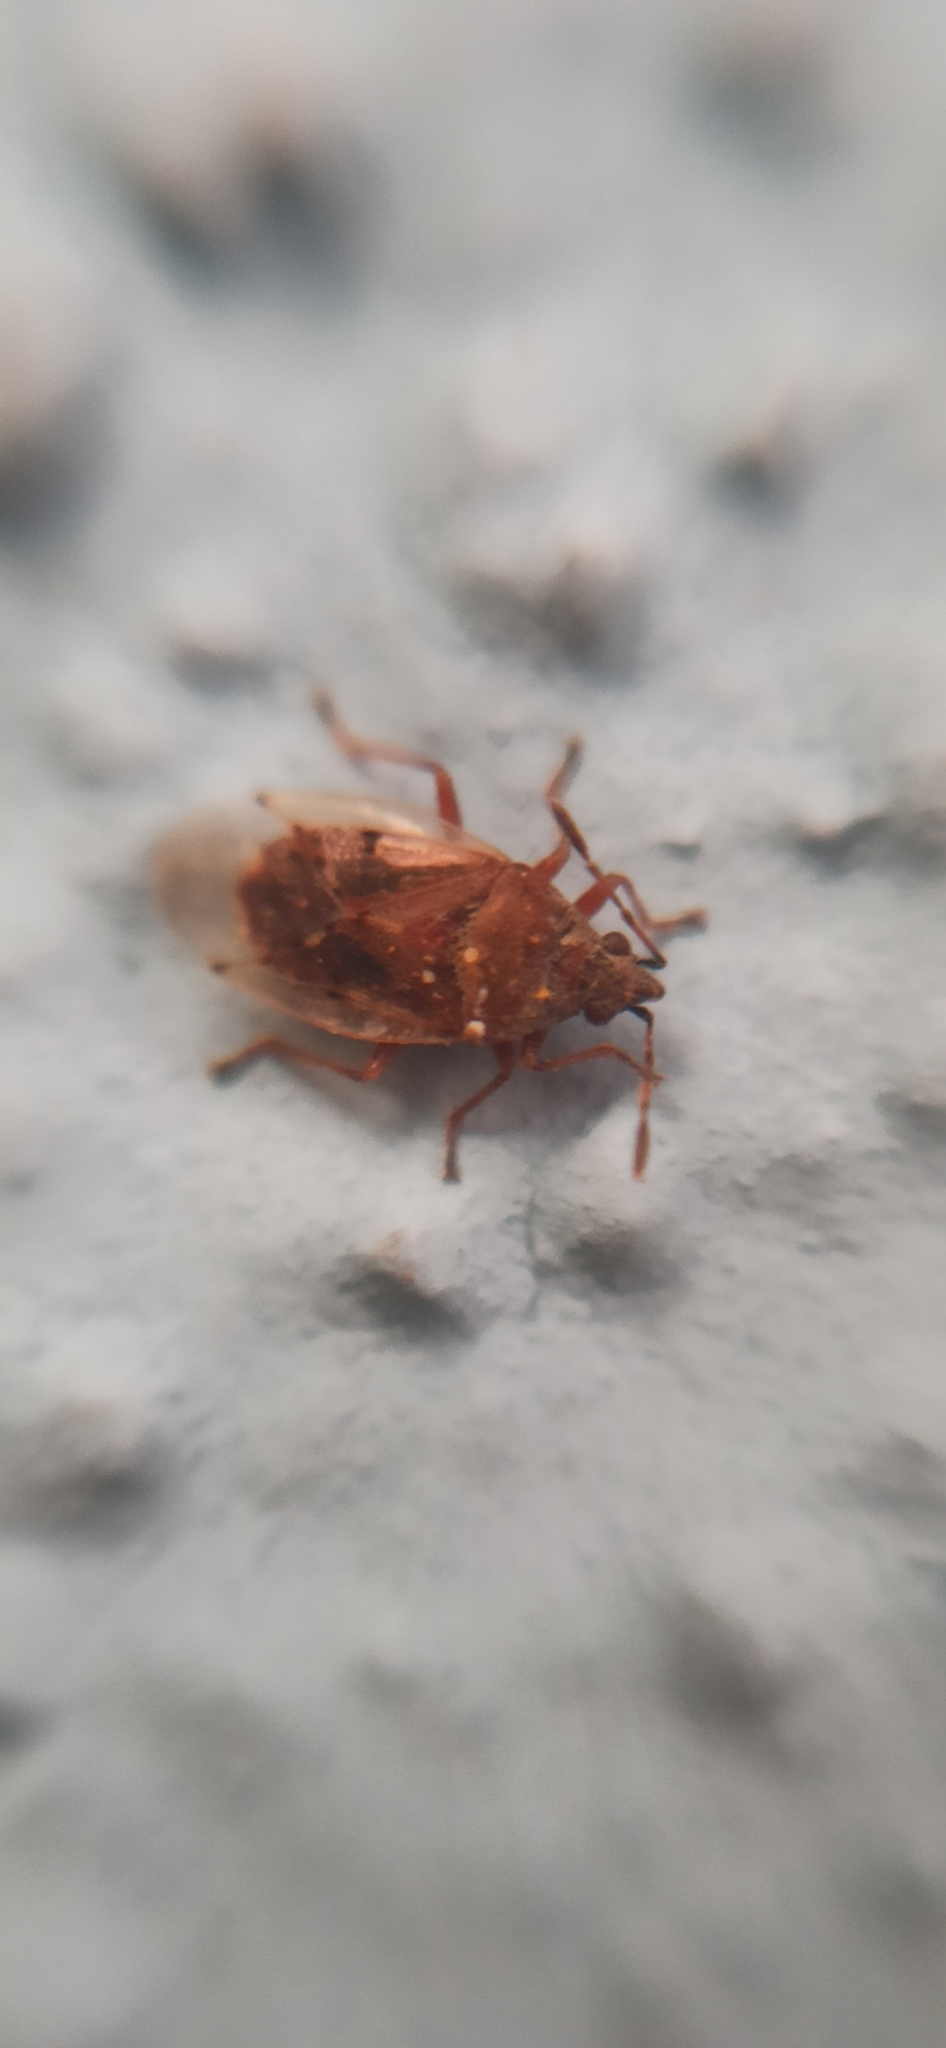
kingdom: Animalia
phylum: Arthropoda
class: Insecta
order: Hemiptera
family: Lygaeidae
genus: Kleidocerys
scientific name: Kleidocerys resedae
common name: Birch catkin bug
